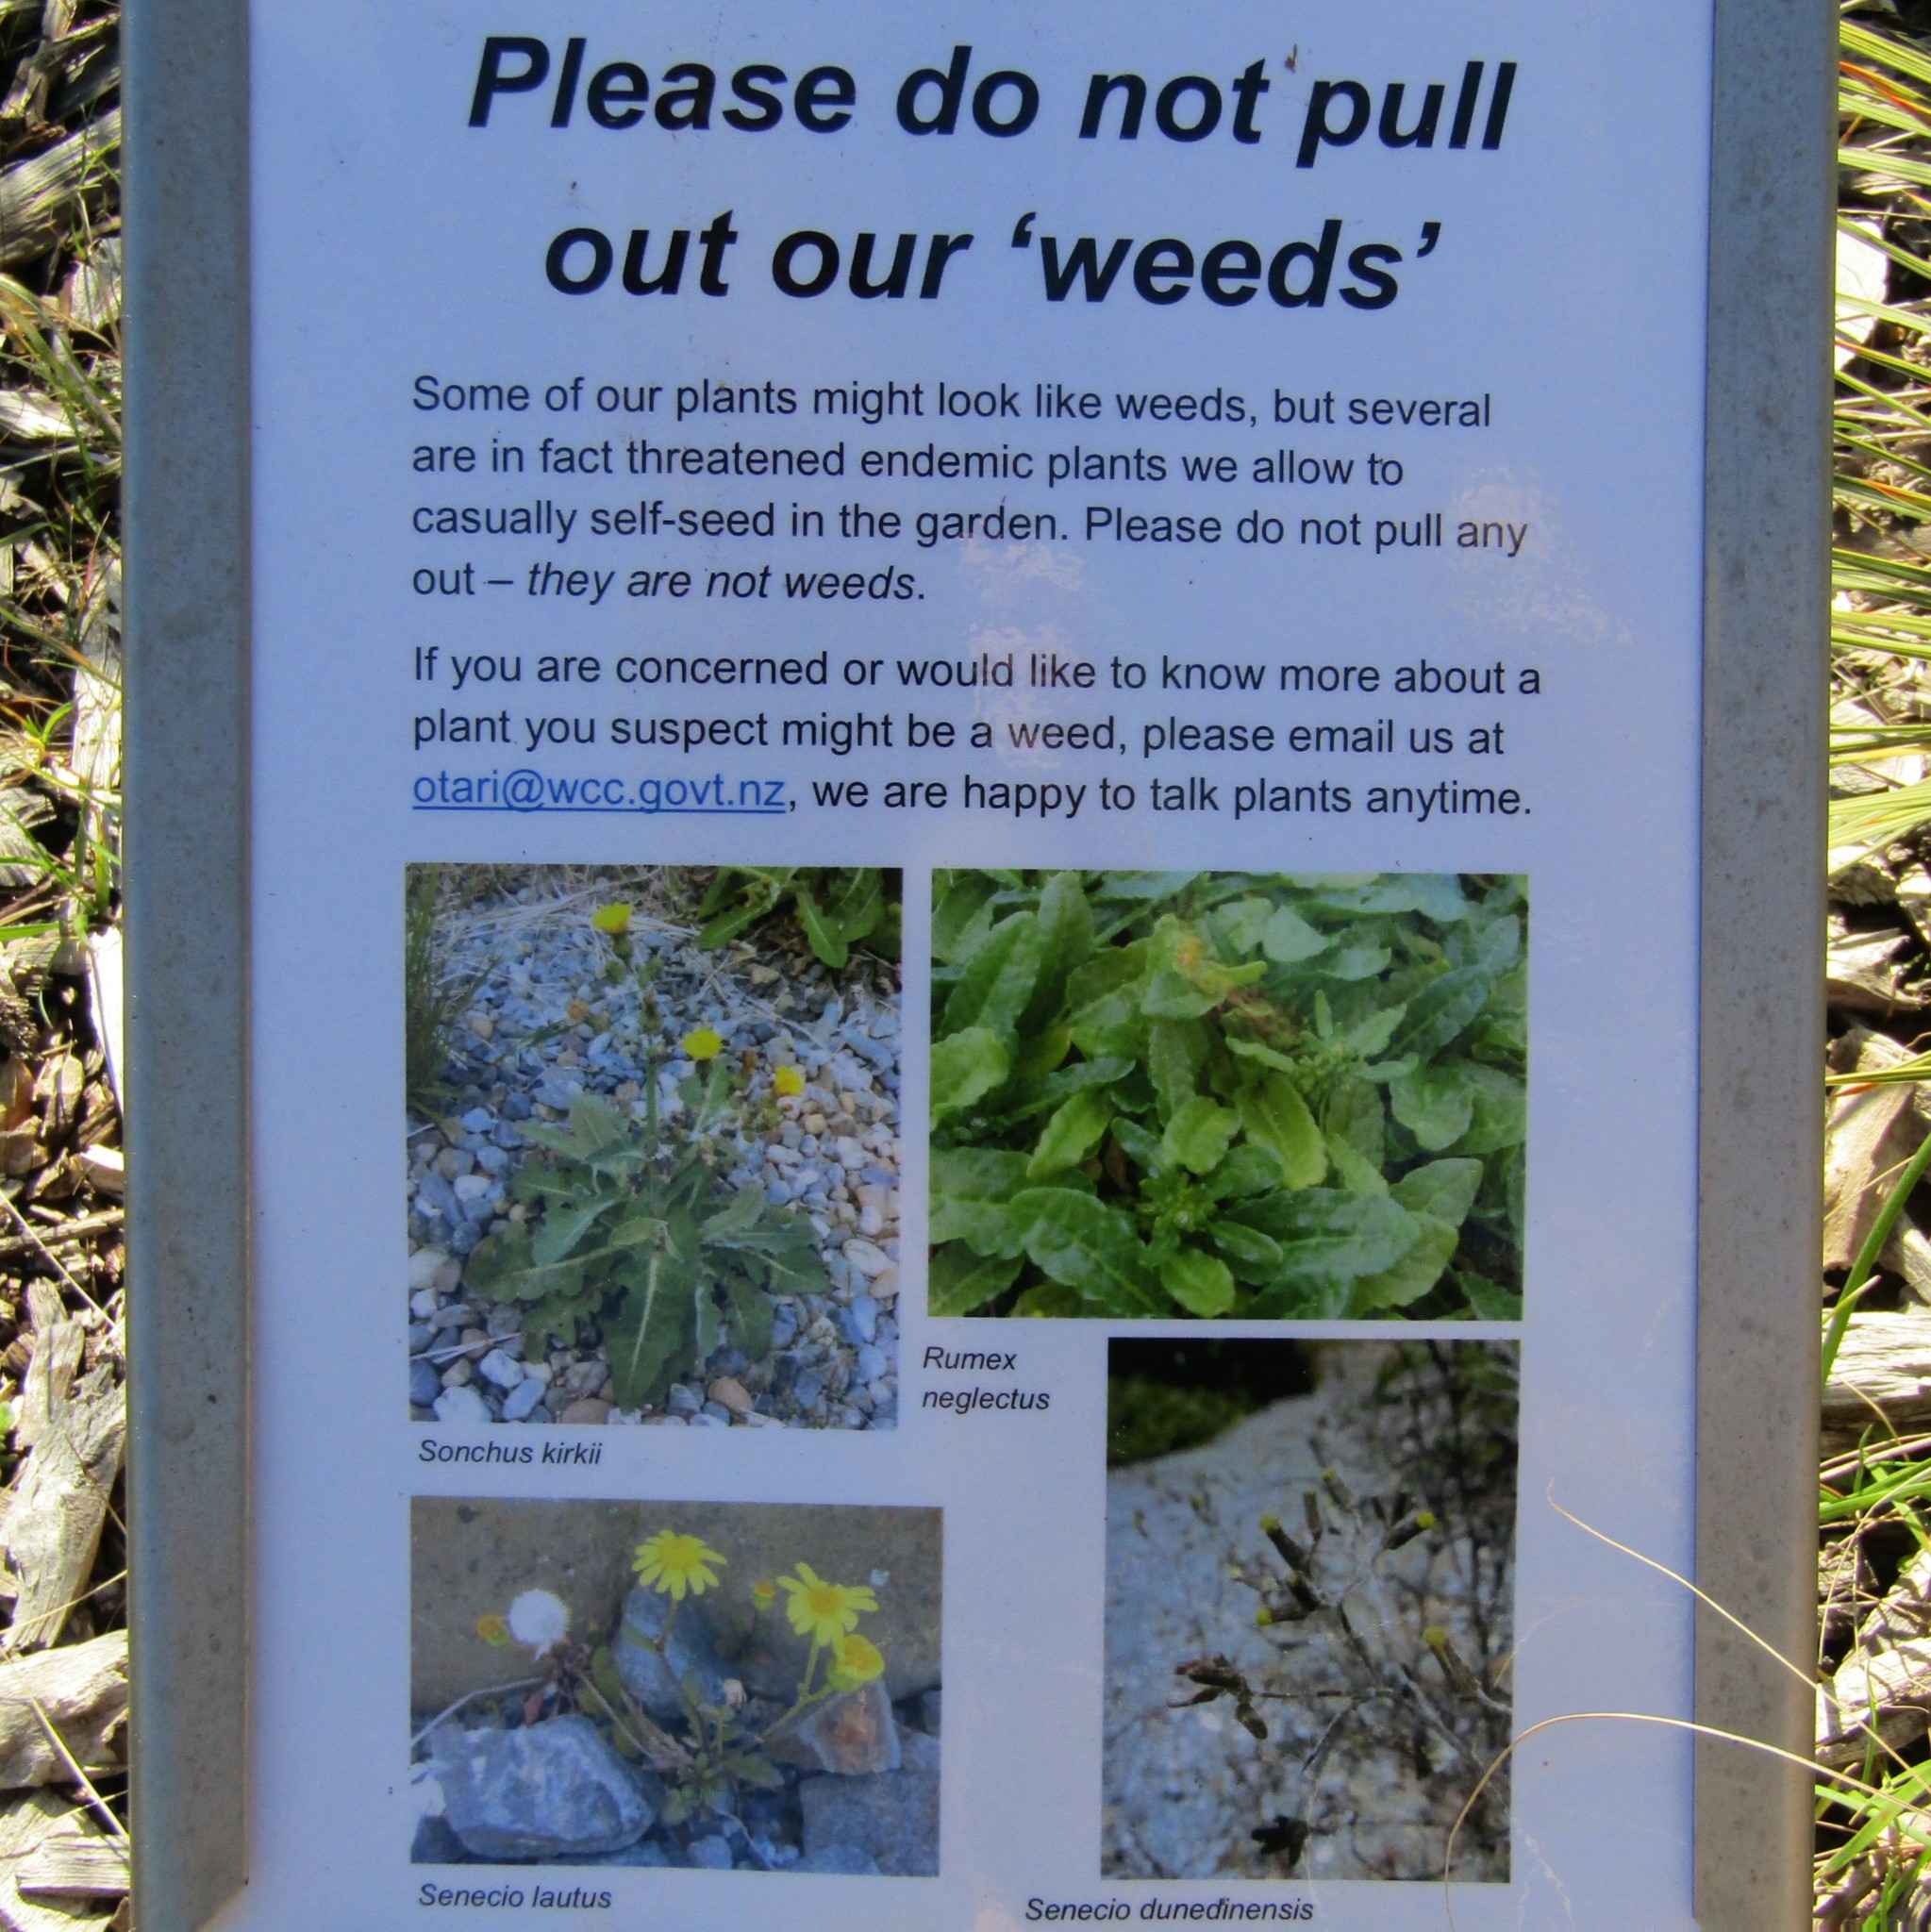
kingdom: Plantae
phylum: Tracheophyta
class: Magnoliopsida
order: Asterales
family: Asteraceae
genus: Sonchus
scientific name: Sonchus kirkii
